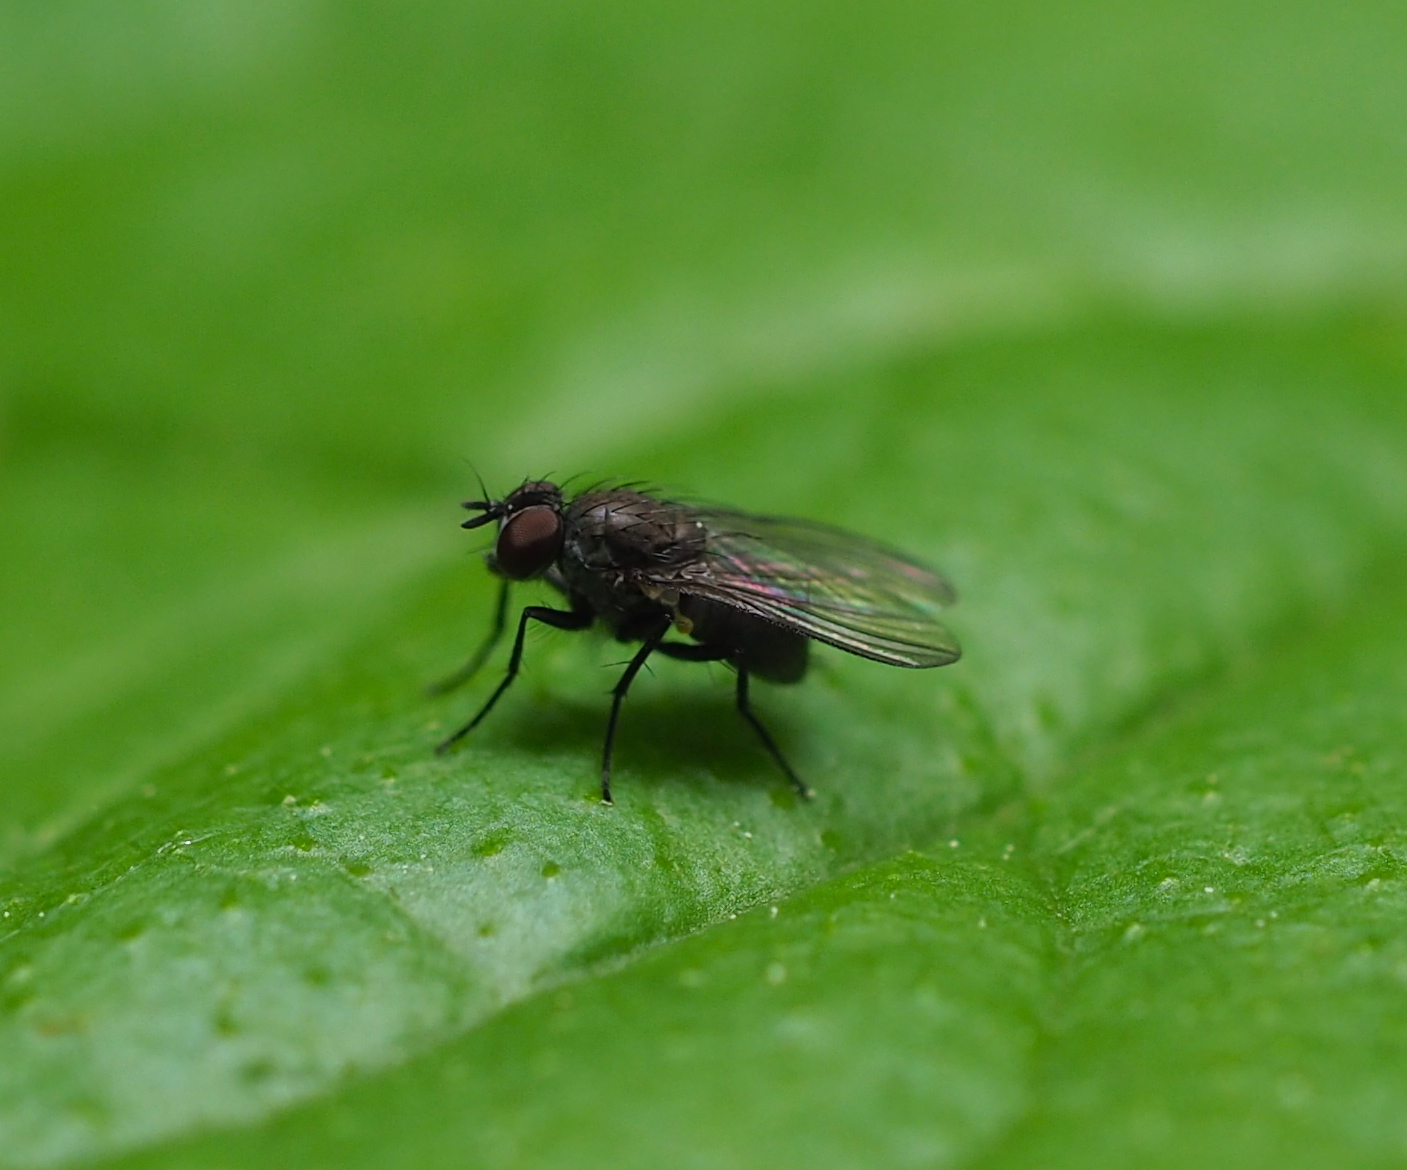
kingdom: Animalia
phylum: Arthropoda
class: Insecta
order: Diptera
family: Muscidae
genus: Coenosia
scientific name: Coenosia agromyzina
